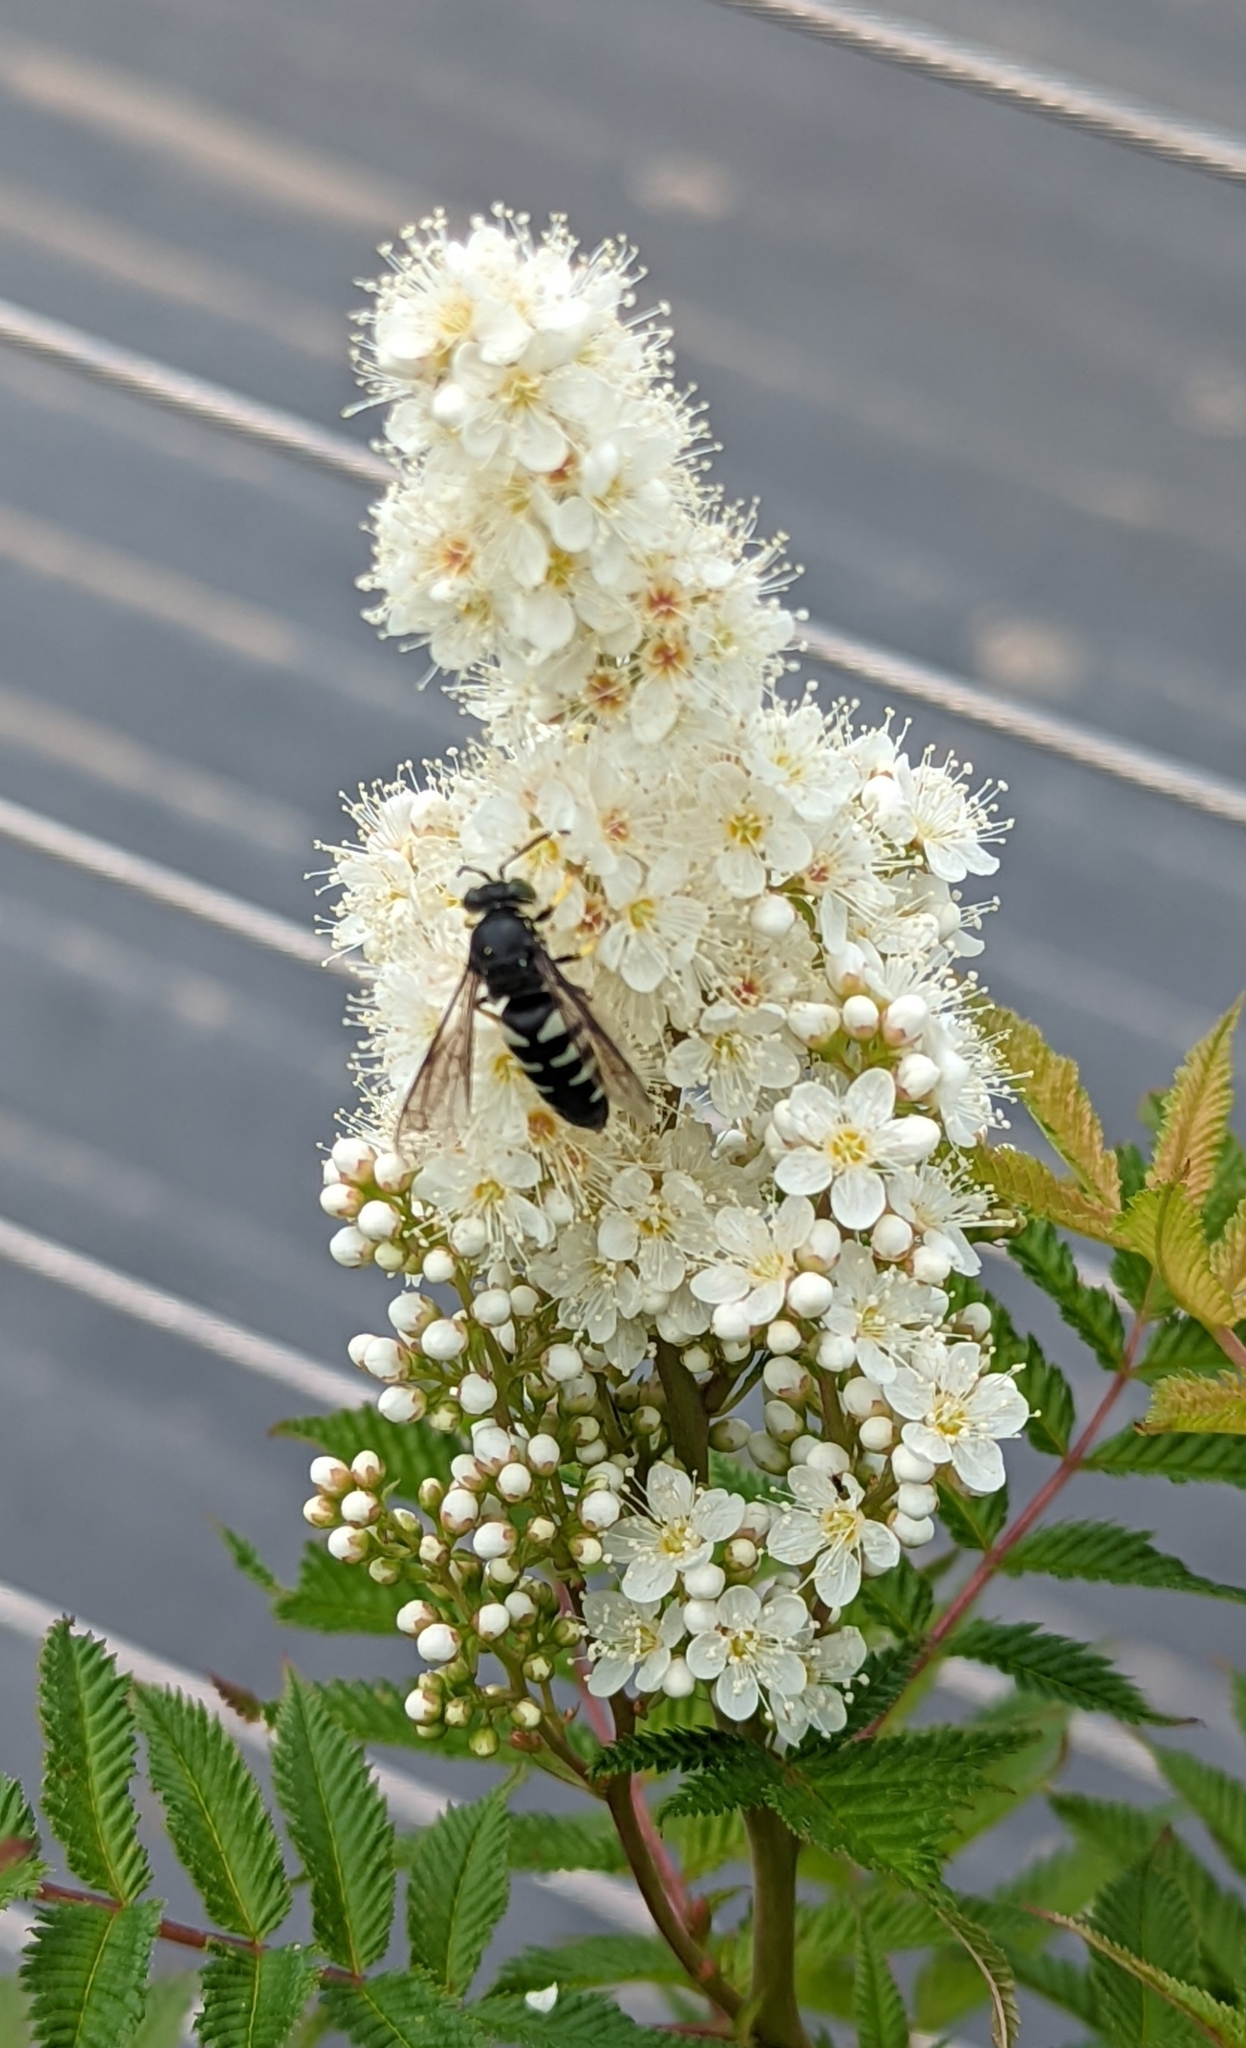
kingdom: Animalia
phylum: Arthropoda
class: Insecta
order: Hymenoptera
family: Crabronidae
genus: Bicyrtes
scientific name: Bicyrtes quadrifasciatus
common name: Four-banded stink bug hunter wasp
